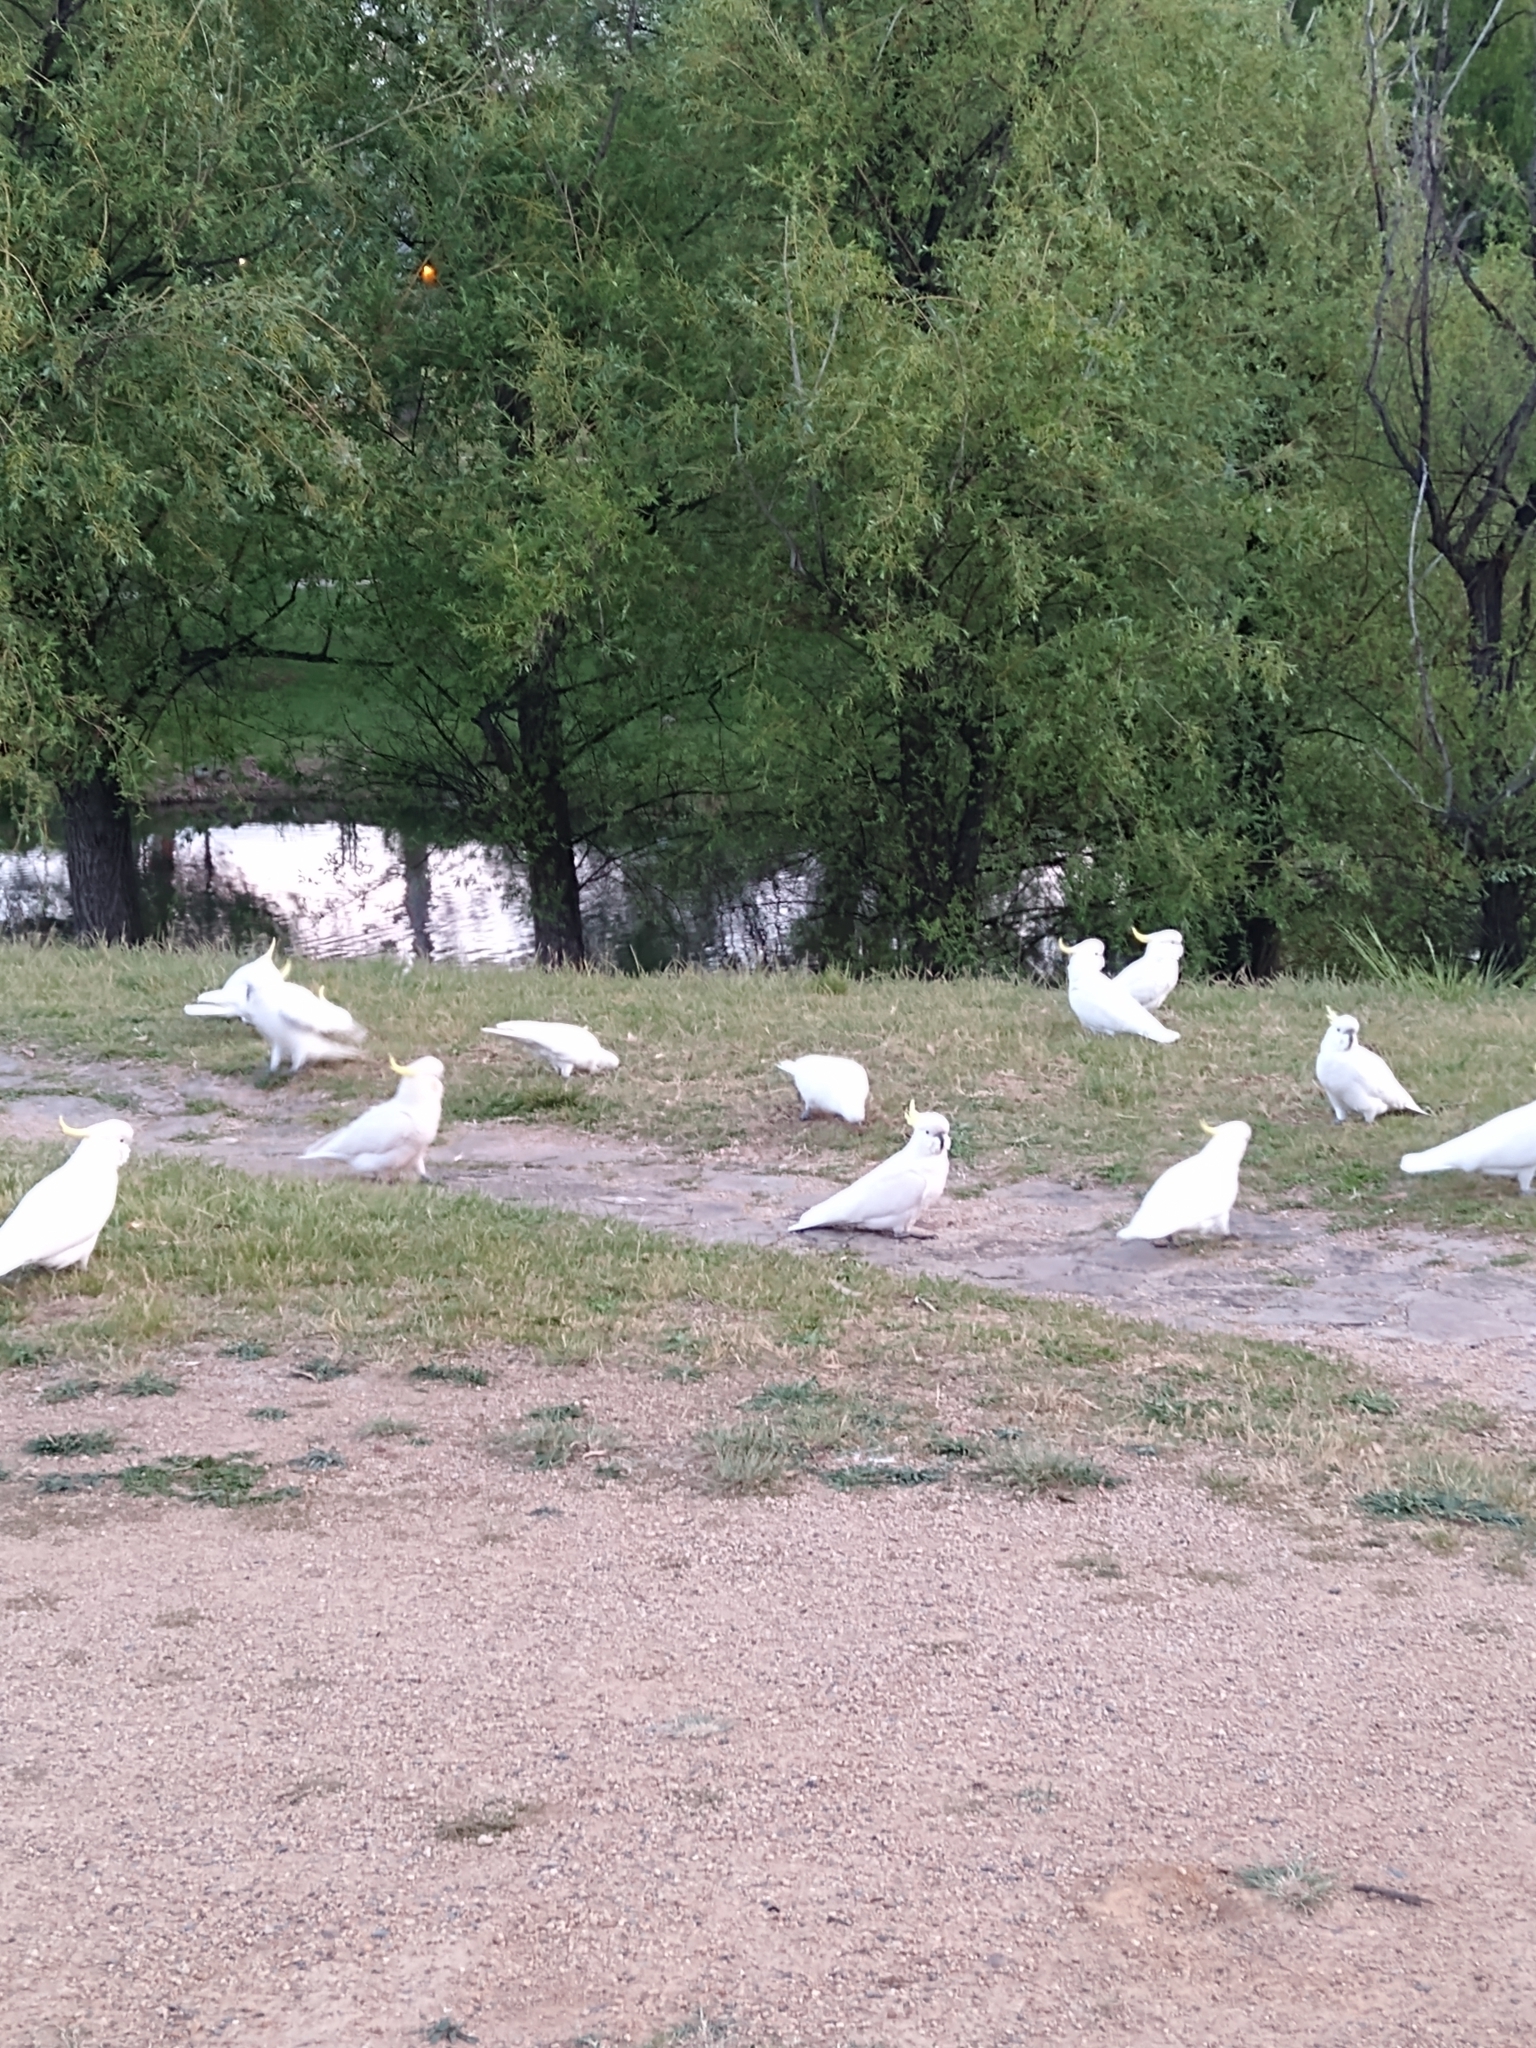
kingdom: Animalia
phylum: Chordata
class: Aves
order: Psittaciformes
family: Psittacidae
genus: Cacatua
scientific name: Cacatua galerita
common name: Sulphur-crested cockatoo
